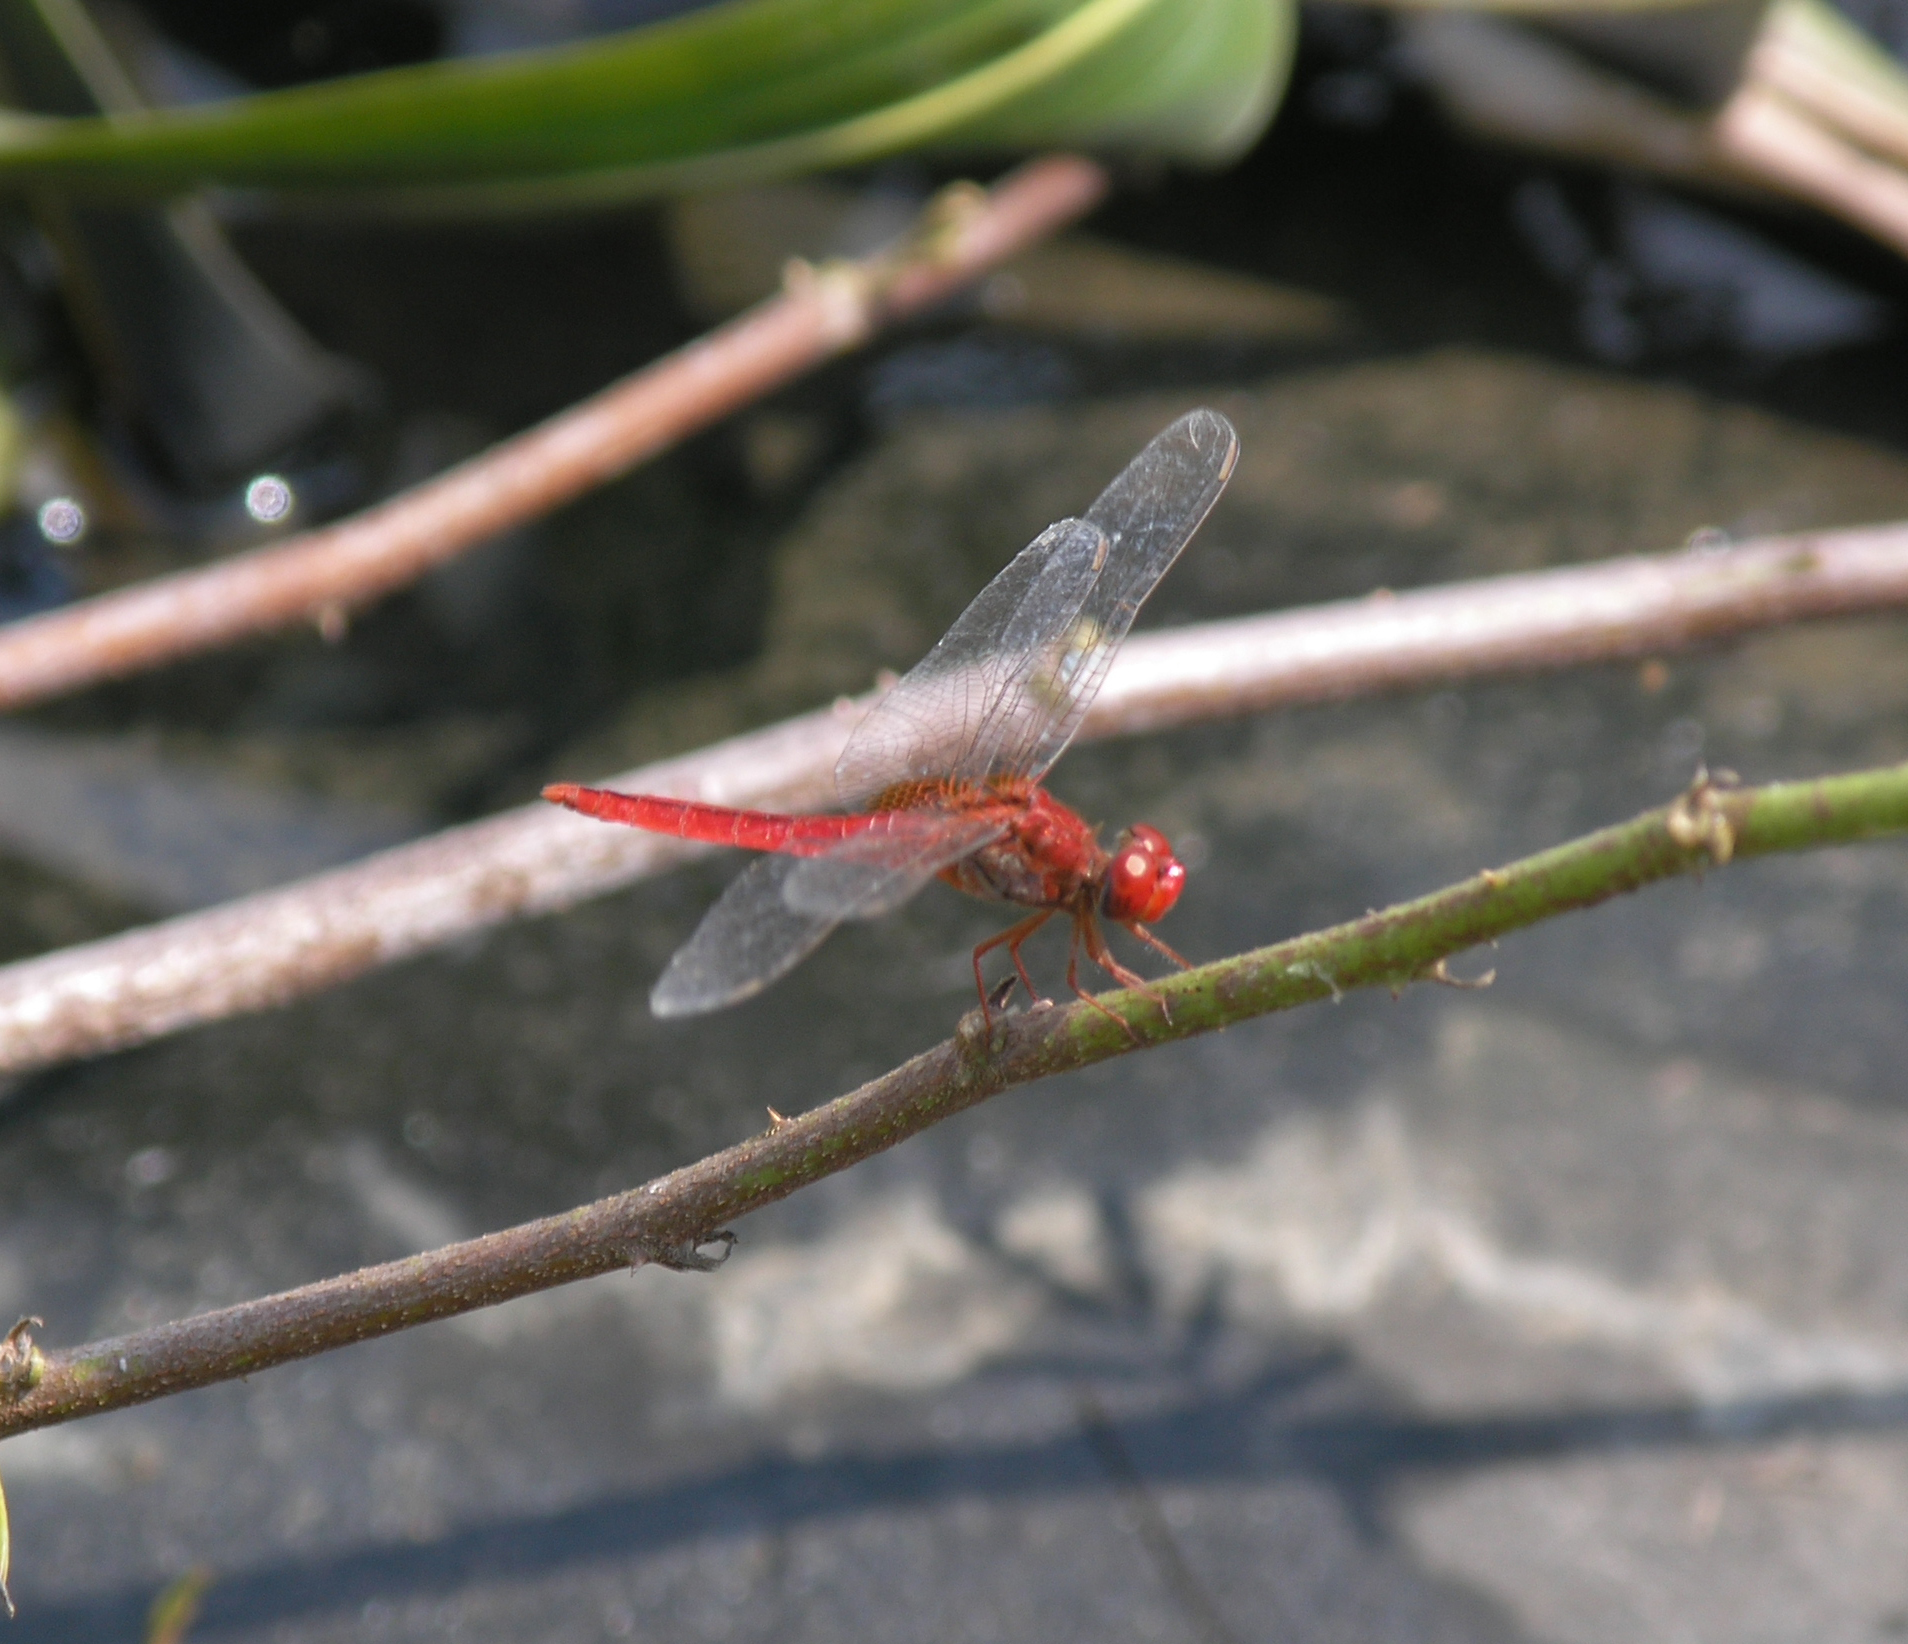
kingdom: Animalia
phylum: Arthropoda
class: Insecta
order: Odonata
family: Libellulidae
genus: Crocothemis
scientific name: Crocothemis servilia
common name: Scarlet skimmer
